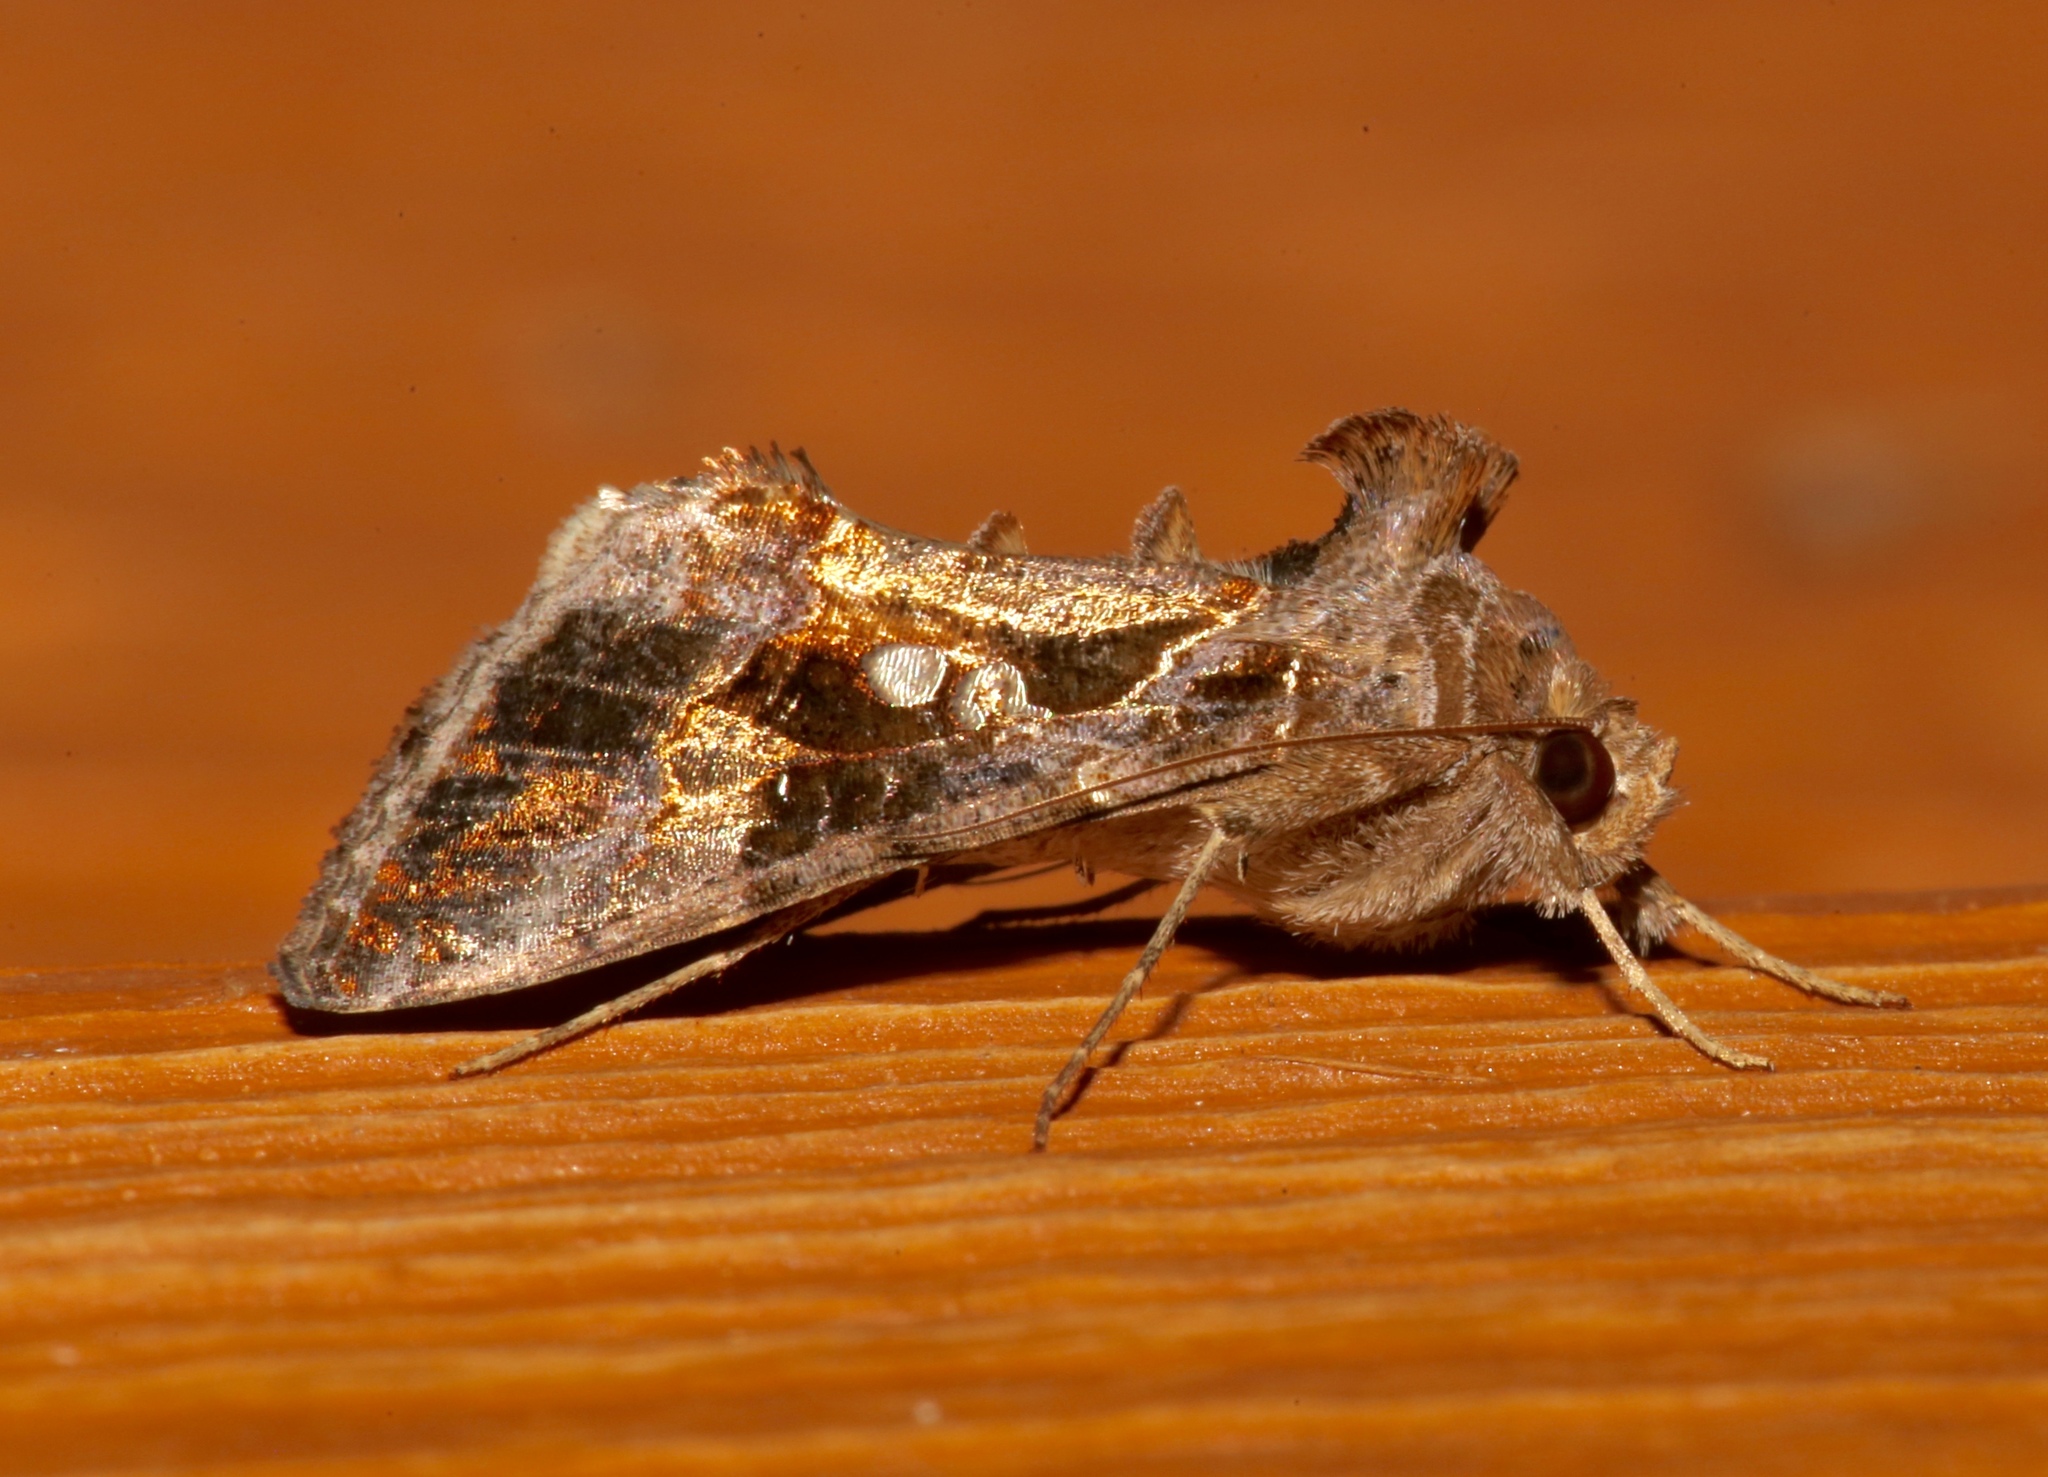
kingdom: Animalia
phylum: Arthropoda
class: Insecta
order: Lepidoptera
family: Noctuidae
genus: Chrysodeixis
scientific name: Chrysodeixis includens
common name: Cutworm moth
